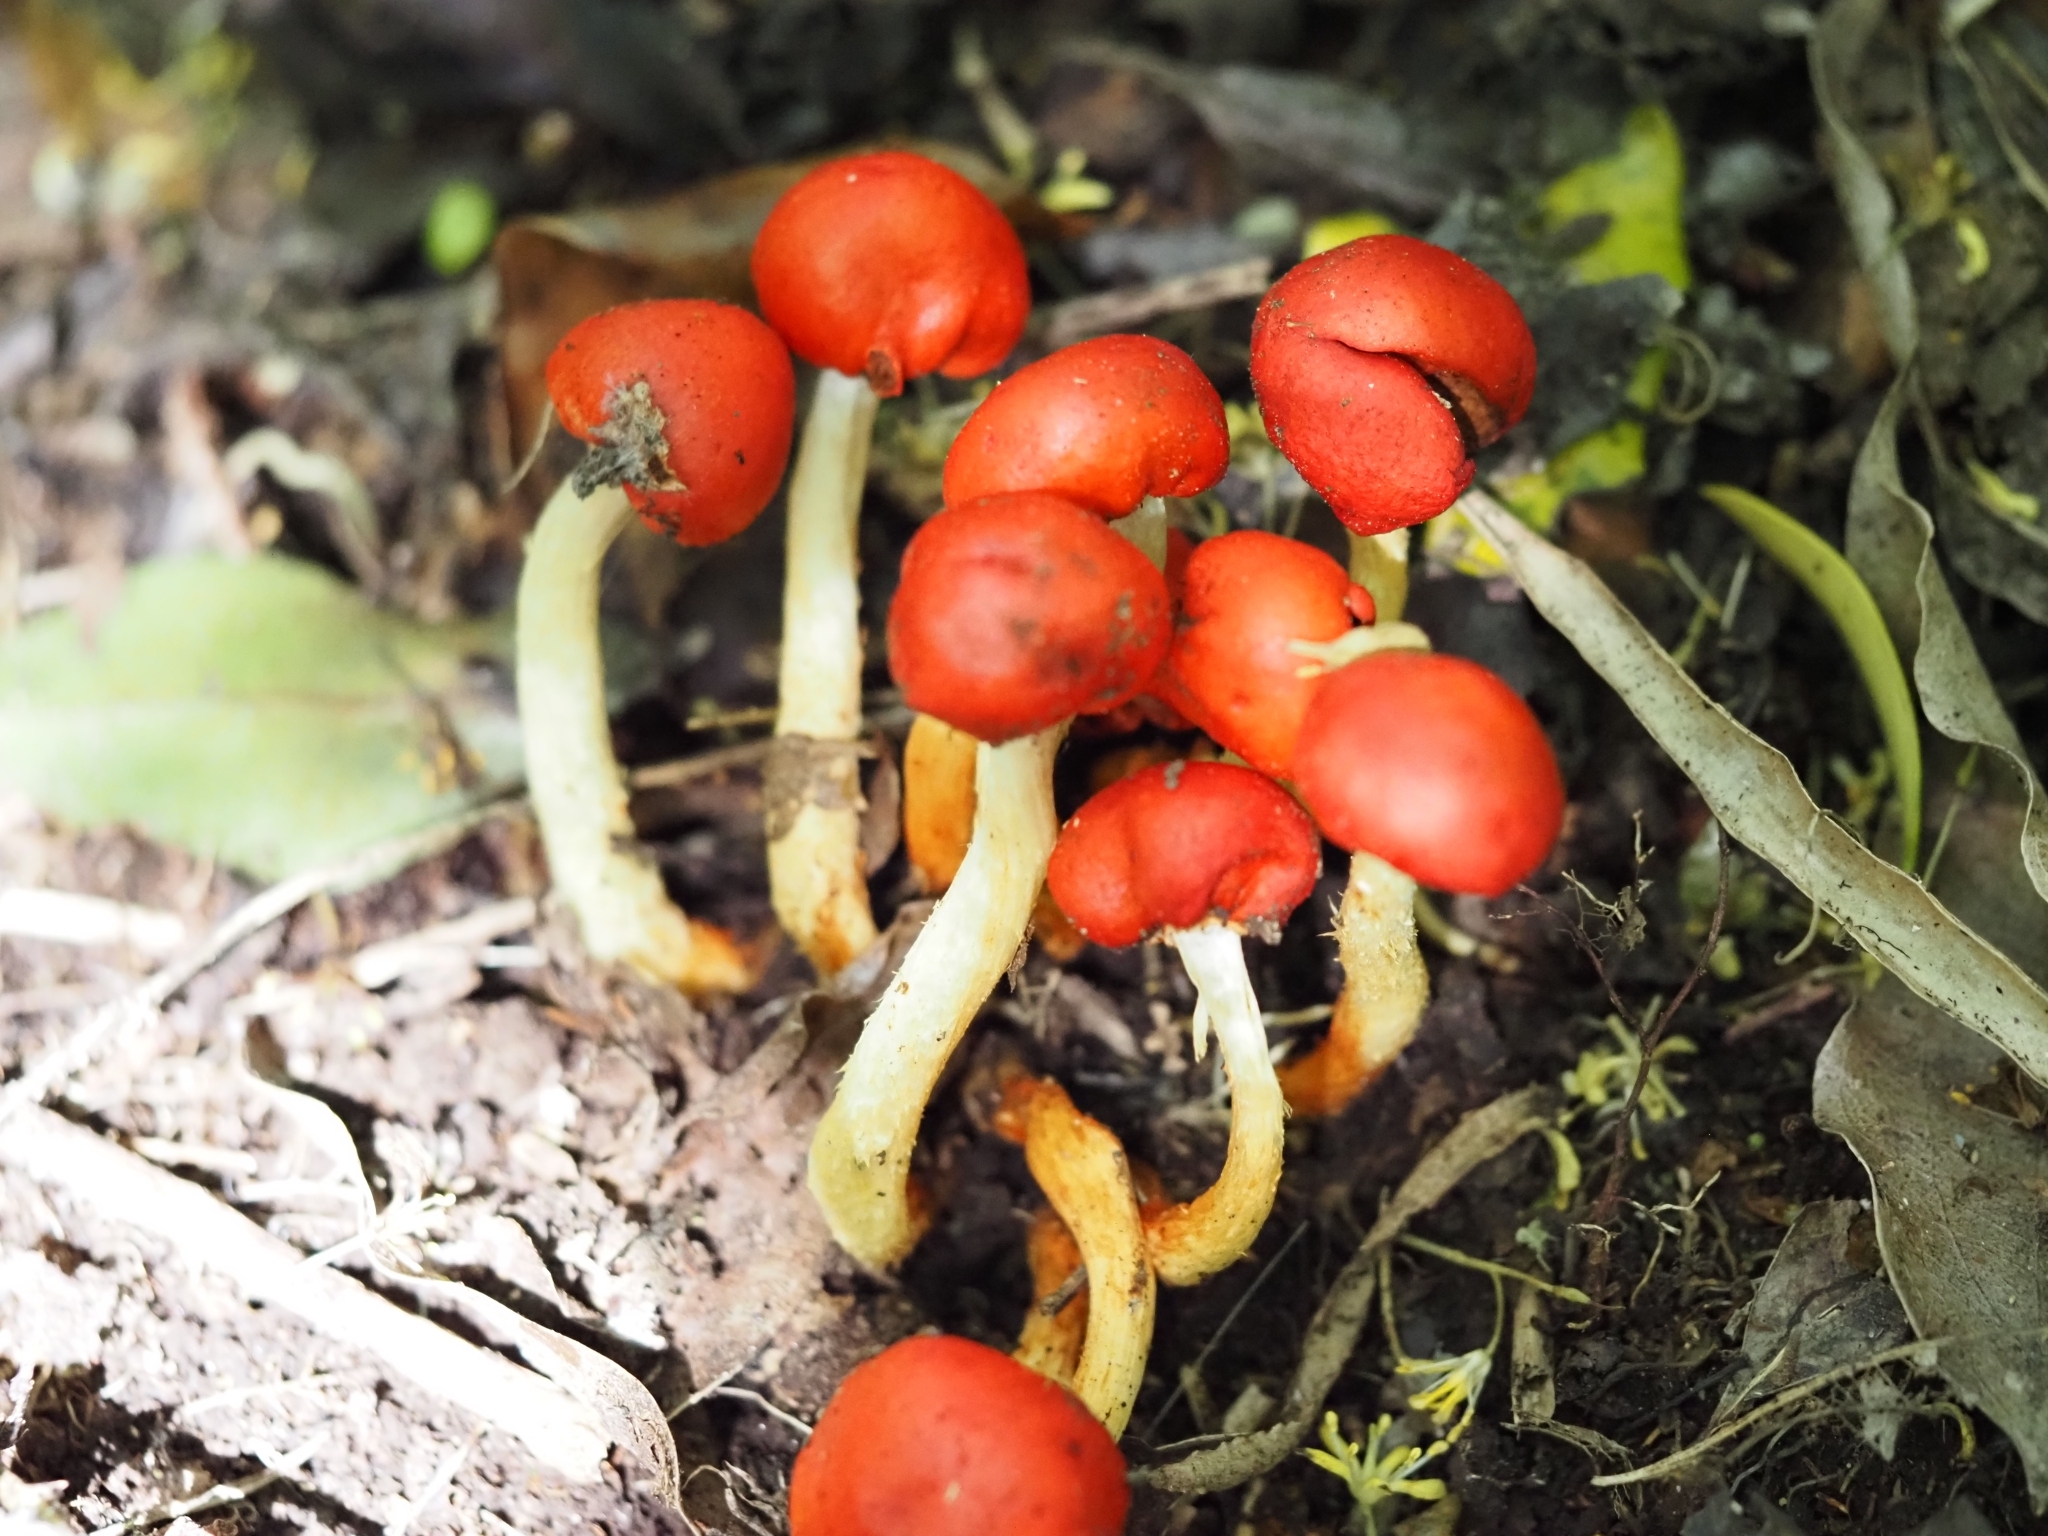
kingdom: Fungi
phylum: Basidiomycota
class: Agaricomycetes
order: Agaricales
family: Strophariaceae
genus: Leratiomyces
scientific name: Leratiomyces erythrocephalus
